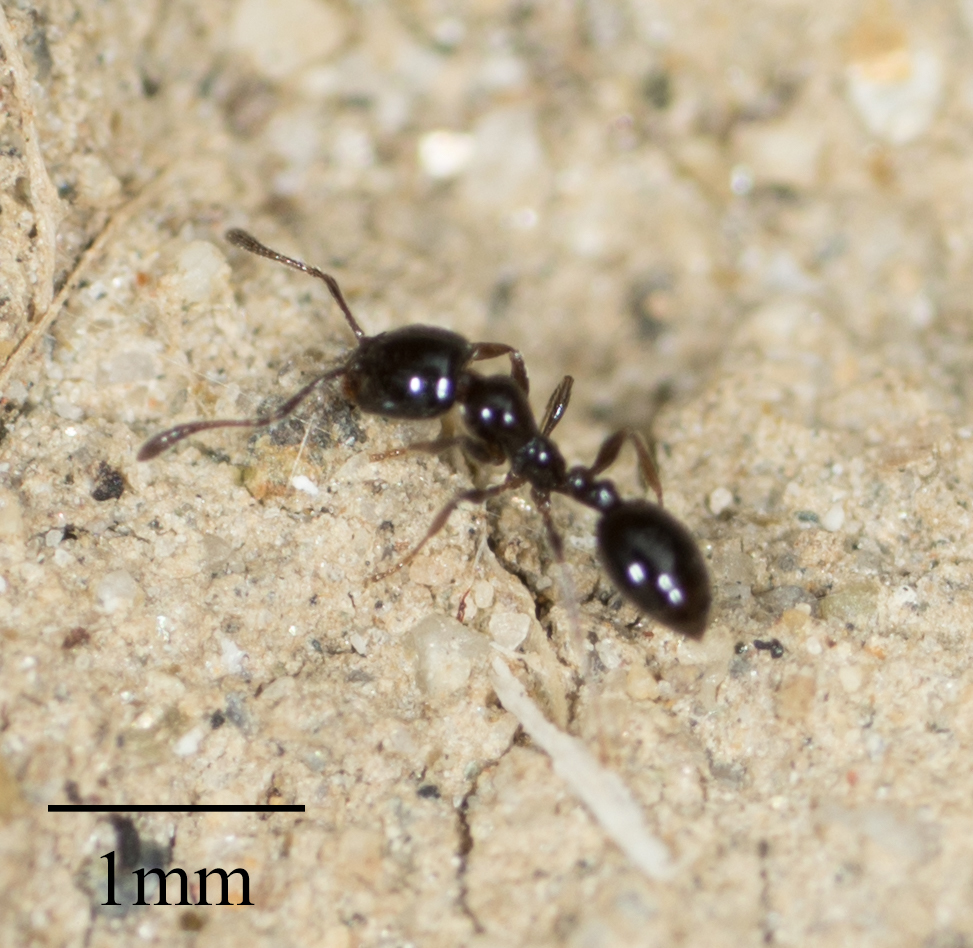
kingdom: Animalia
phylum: Arthropoda
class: Insecta
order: Hymenoptera
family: Formicidae
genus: Monomorium
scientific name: Monomorium ergatogyna
